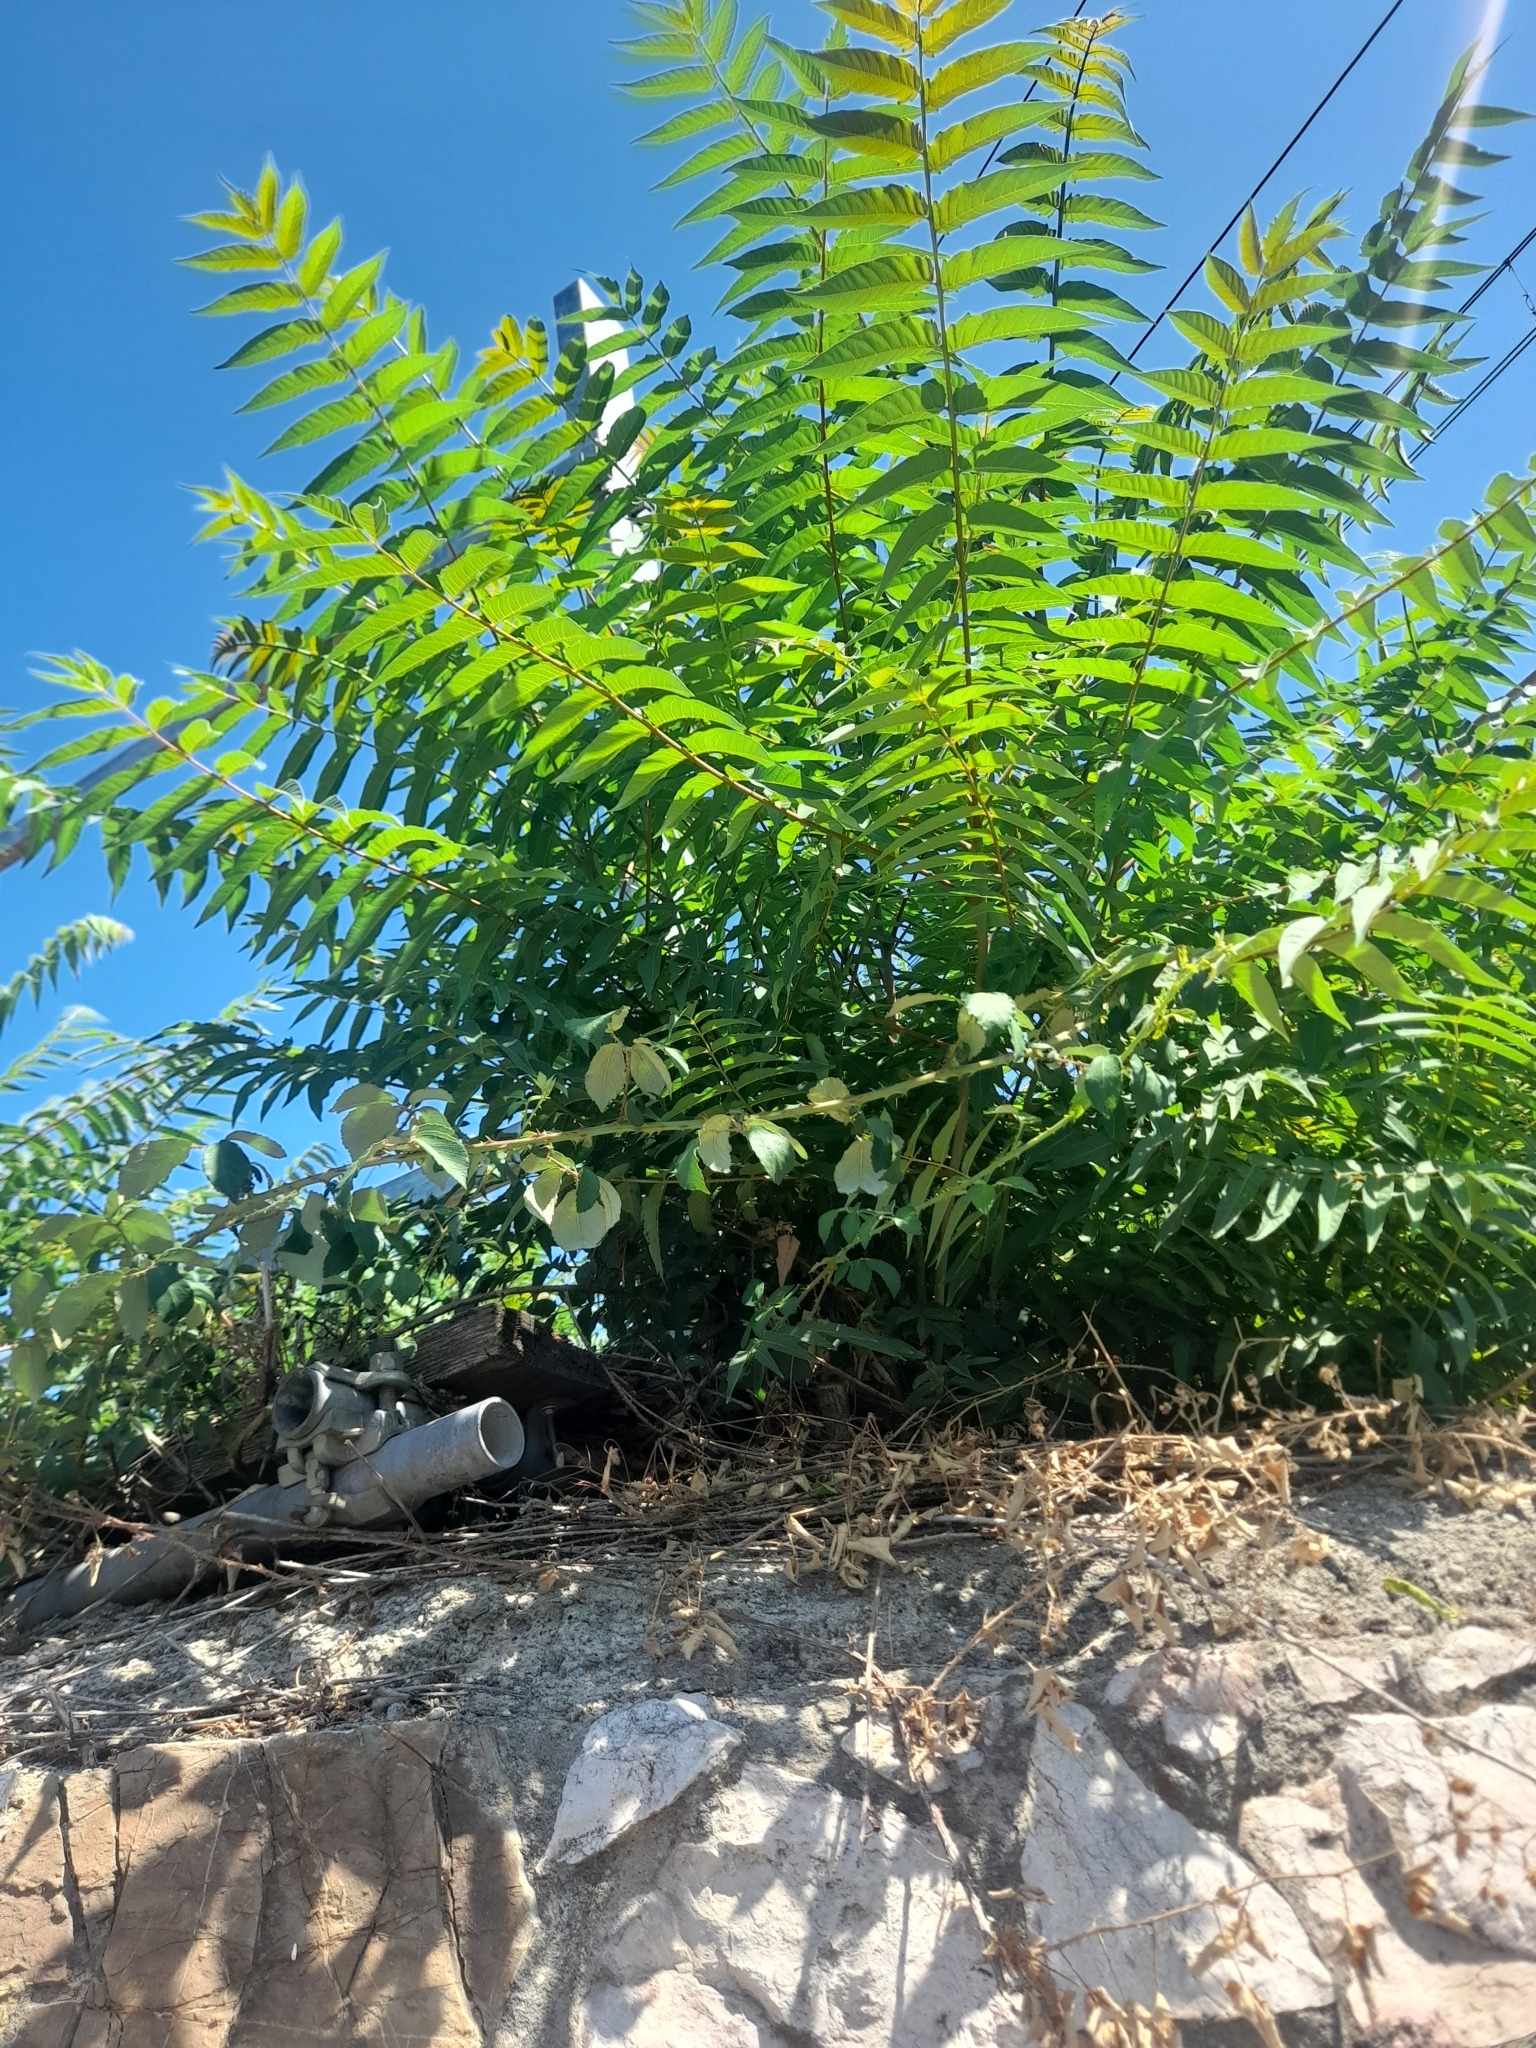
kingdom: Plantae
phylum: Tracheophyta
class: Magnoliopsida
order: Sapindales
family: Simaroubaceae
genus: Ailanthus
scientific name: Ailanthus altissima
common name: Tree-of-heaven
